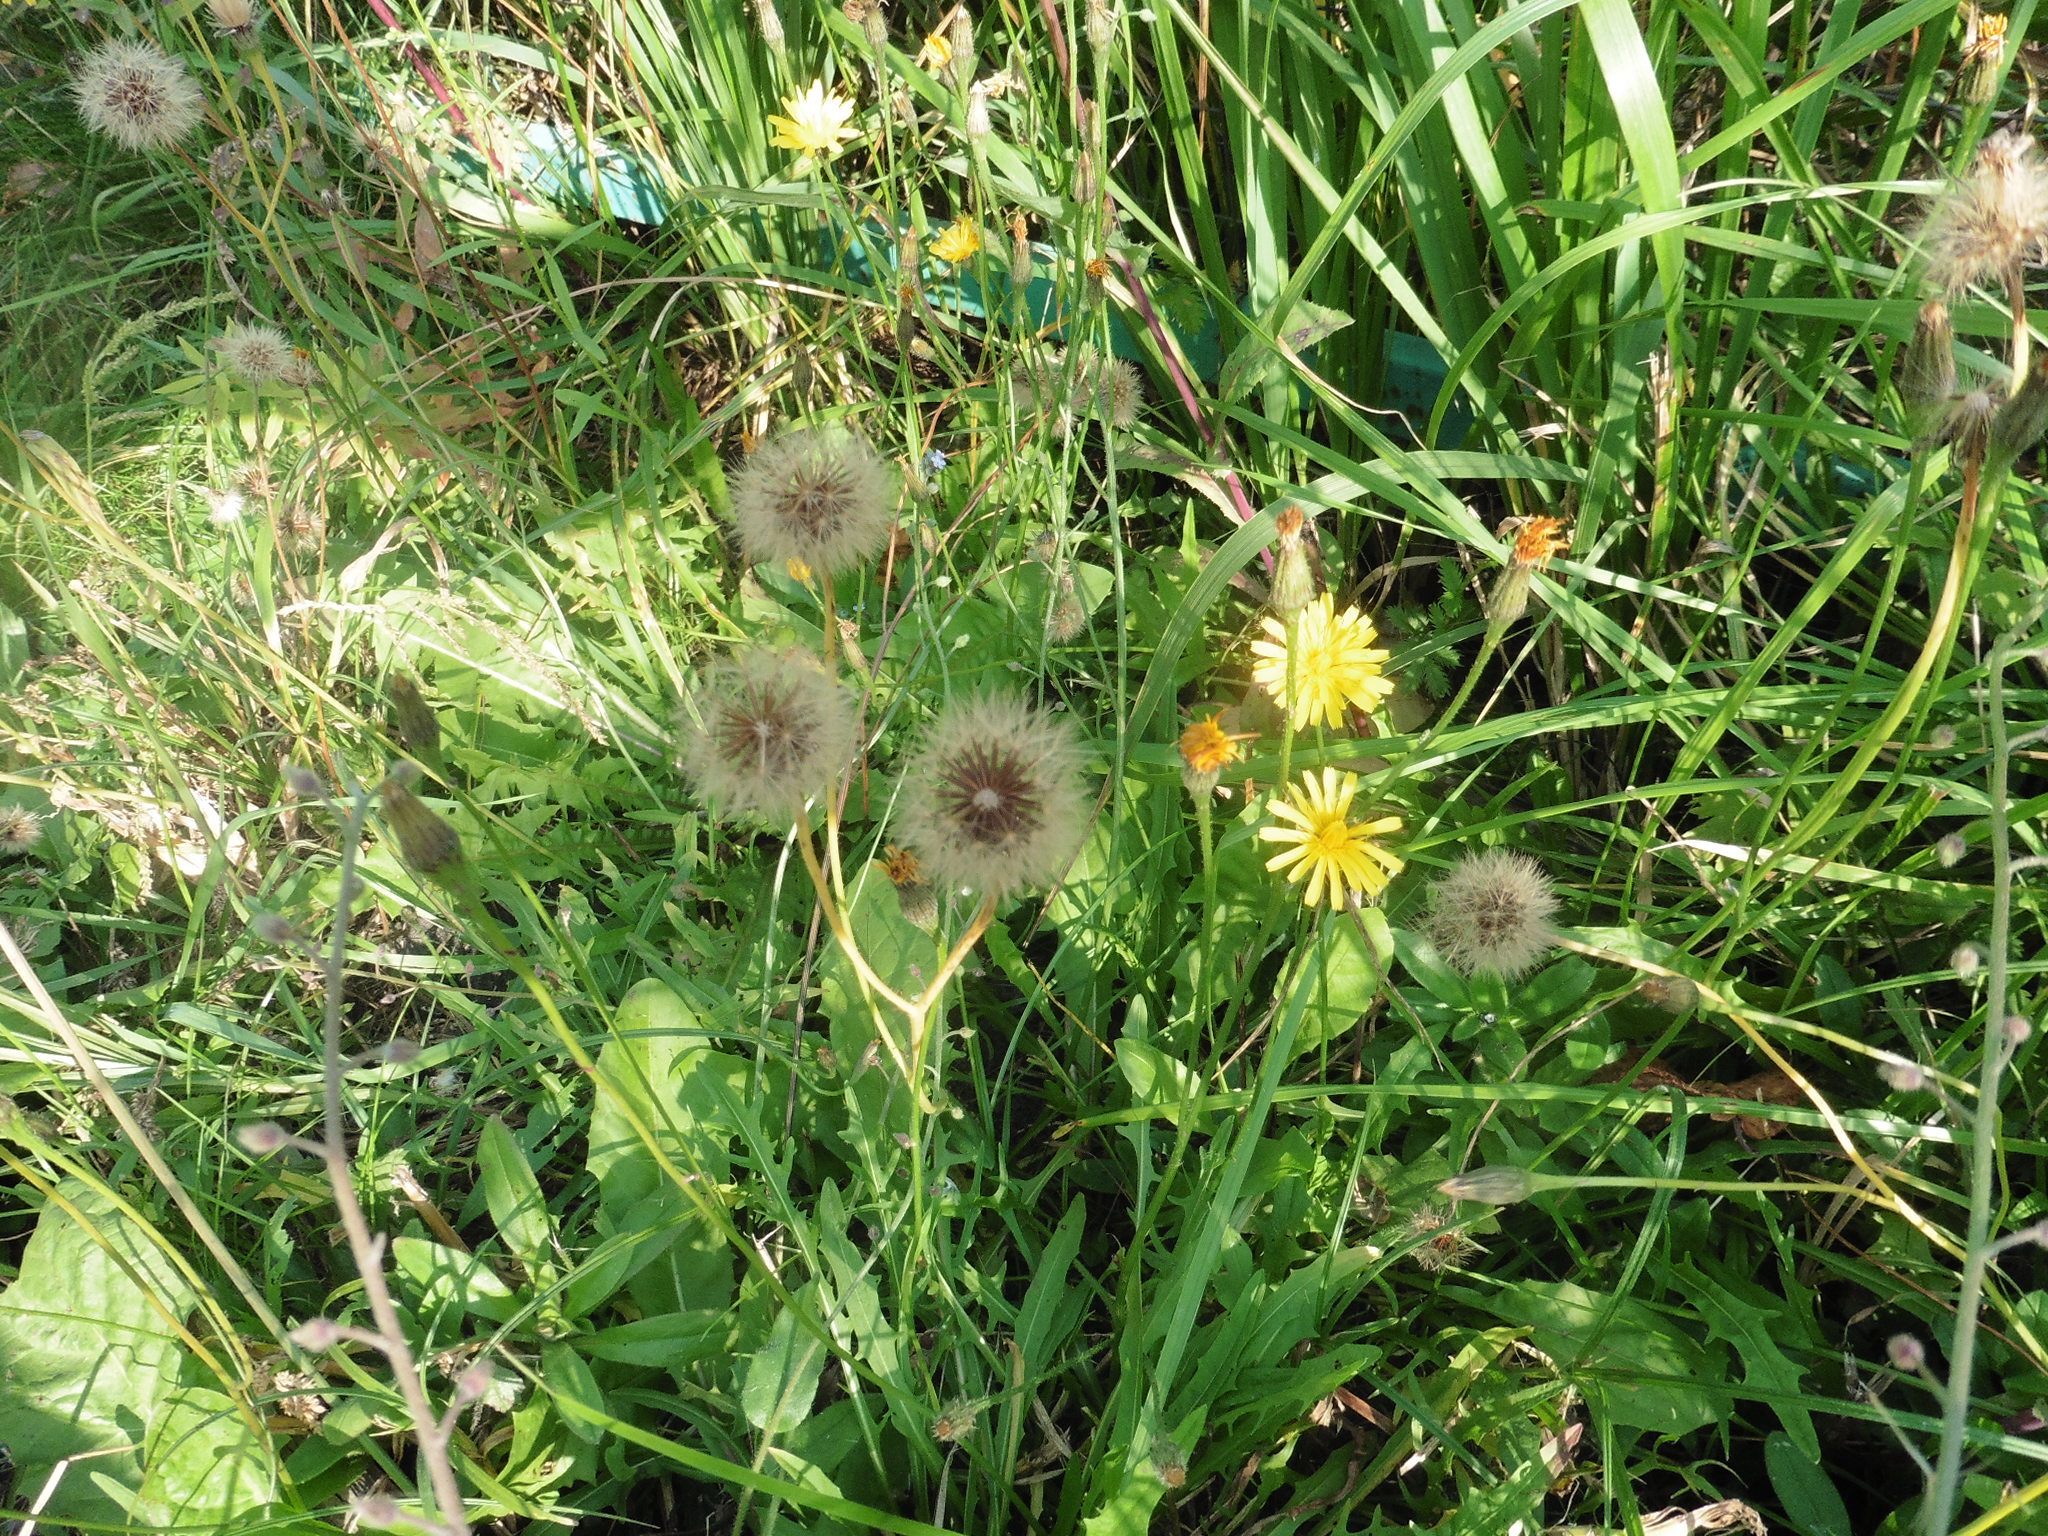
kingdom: Plantae
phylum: Tracheophyta
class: Magnoliopsida
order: Asterales
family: Asteraceae
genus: Scorzoneroides
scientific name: Scorzoneroides autumnalis
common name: Autumn hawkbit
